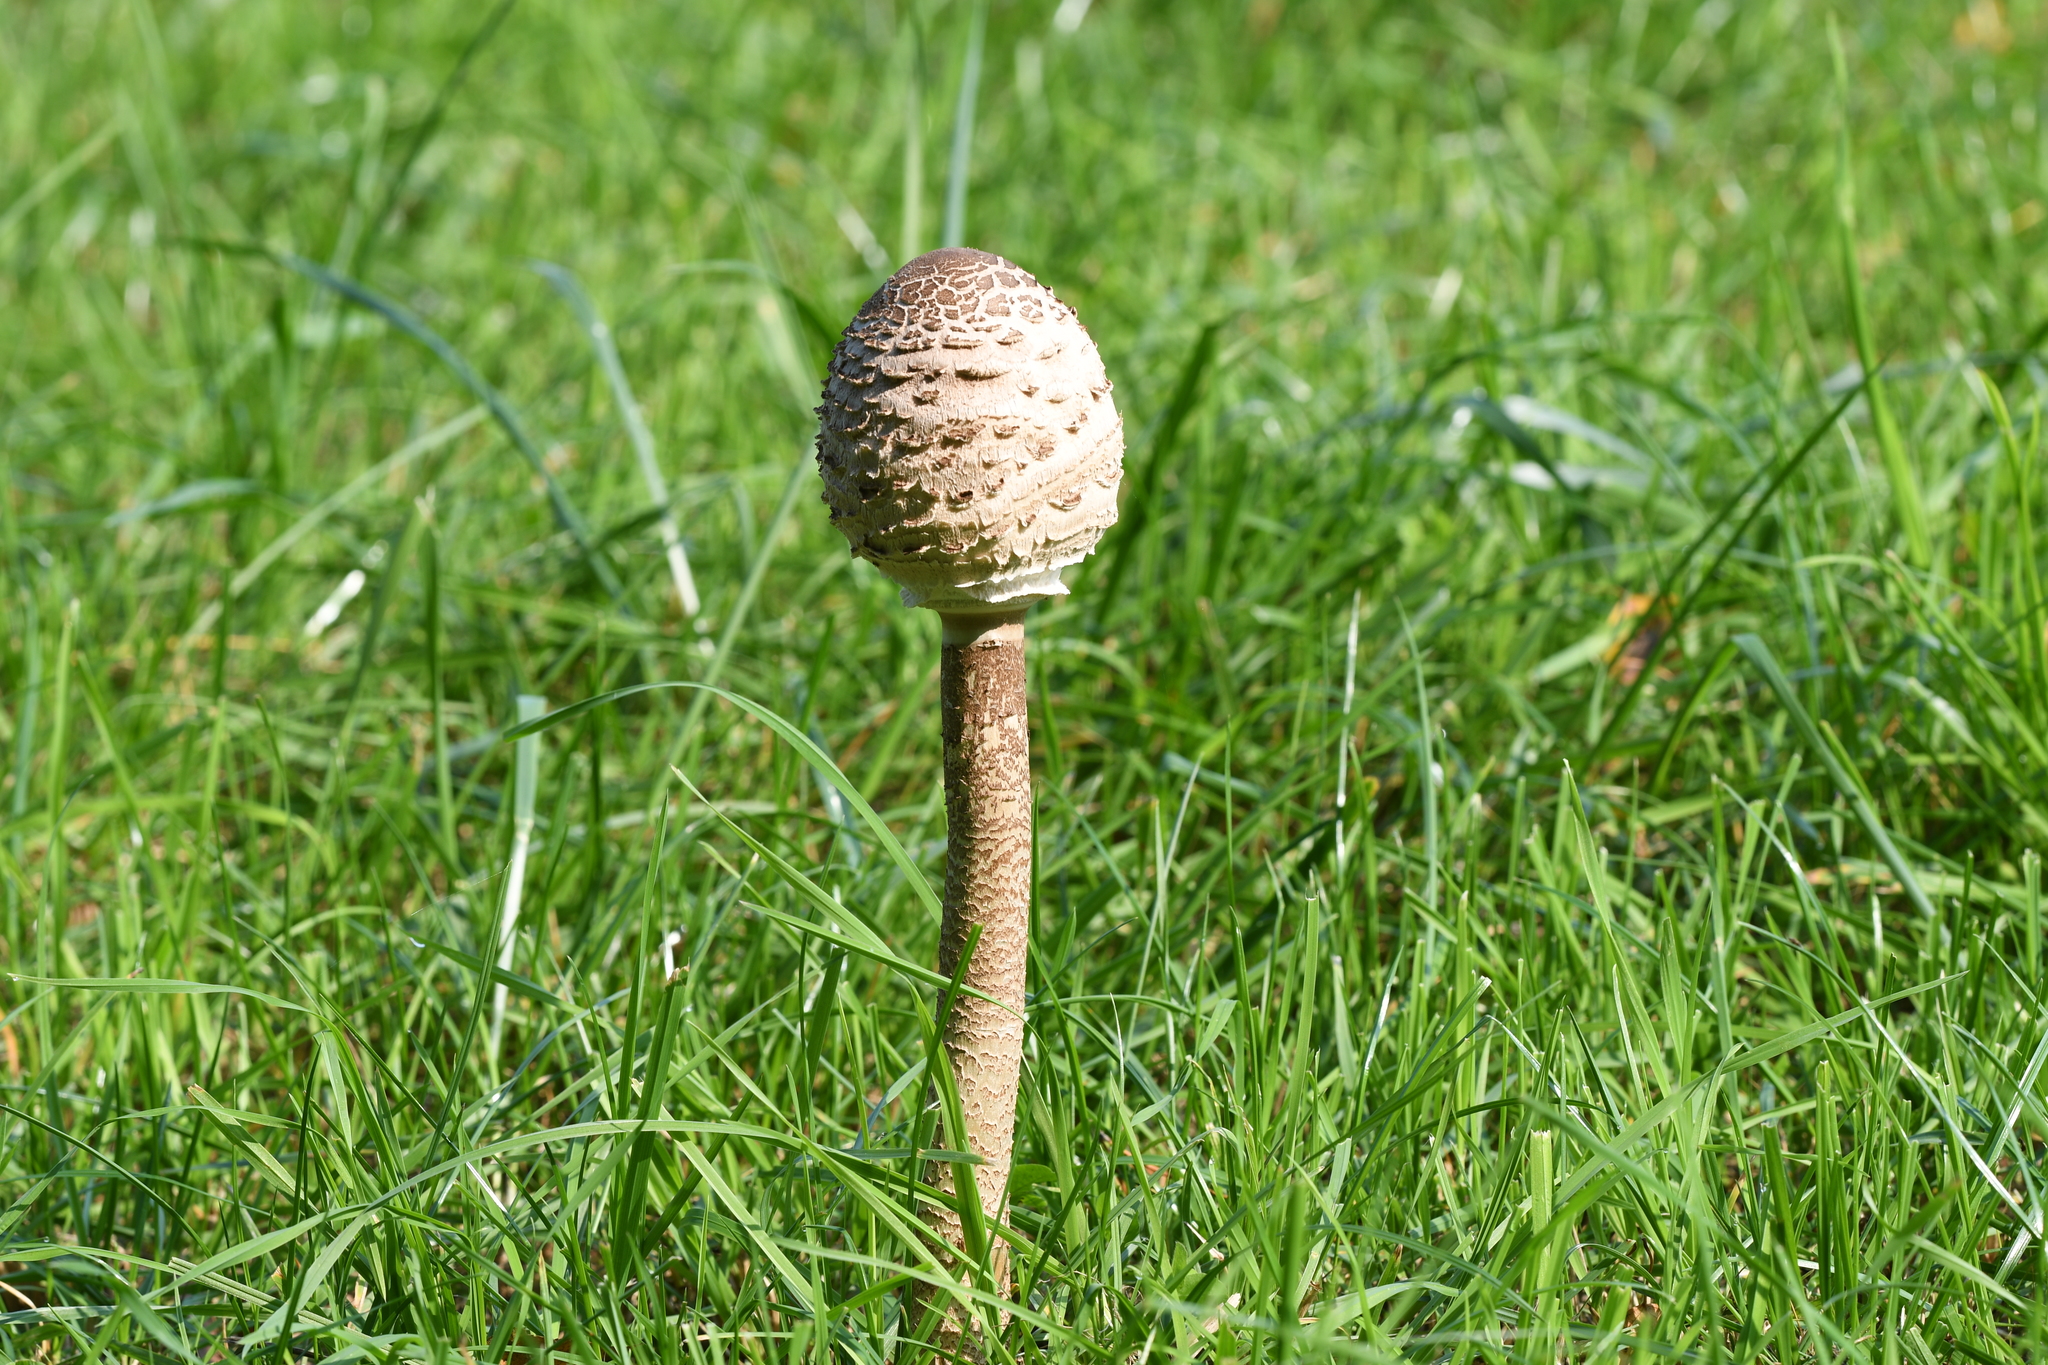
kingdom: Fungi
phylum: Basidiomycota
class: Agaricomycetes
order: Agaricales
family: Agaricaceae
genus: Macrolepiota
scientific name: Macrolepiota procera
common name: Parasol
